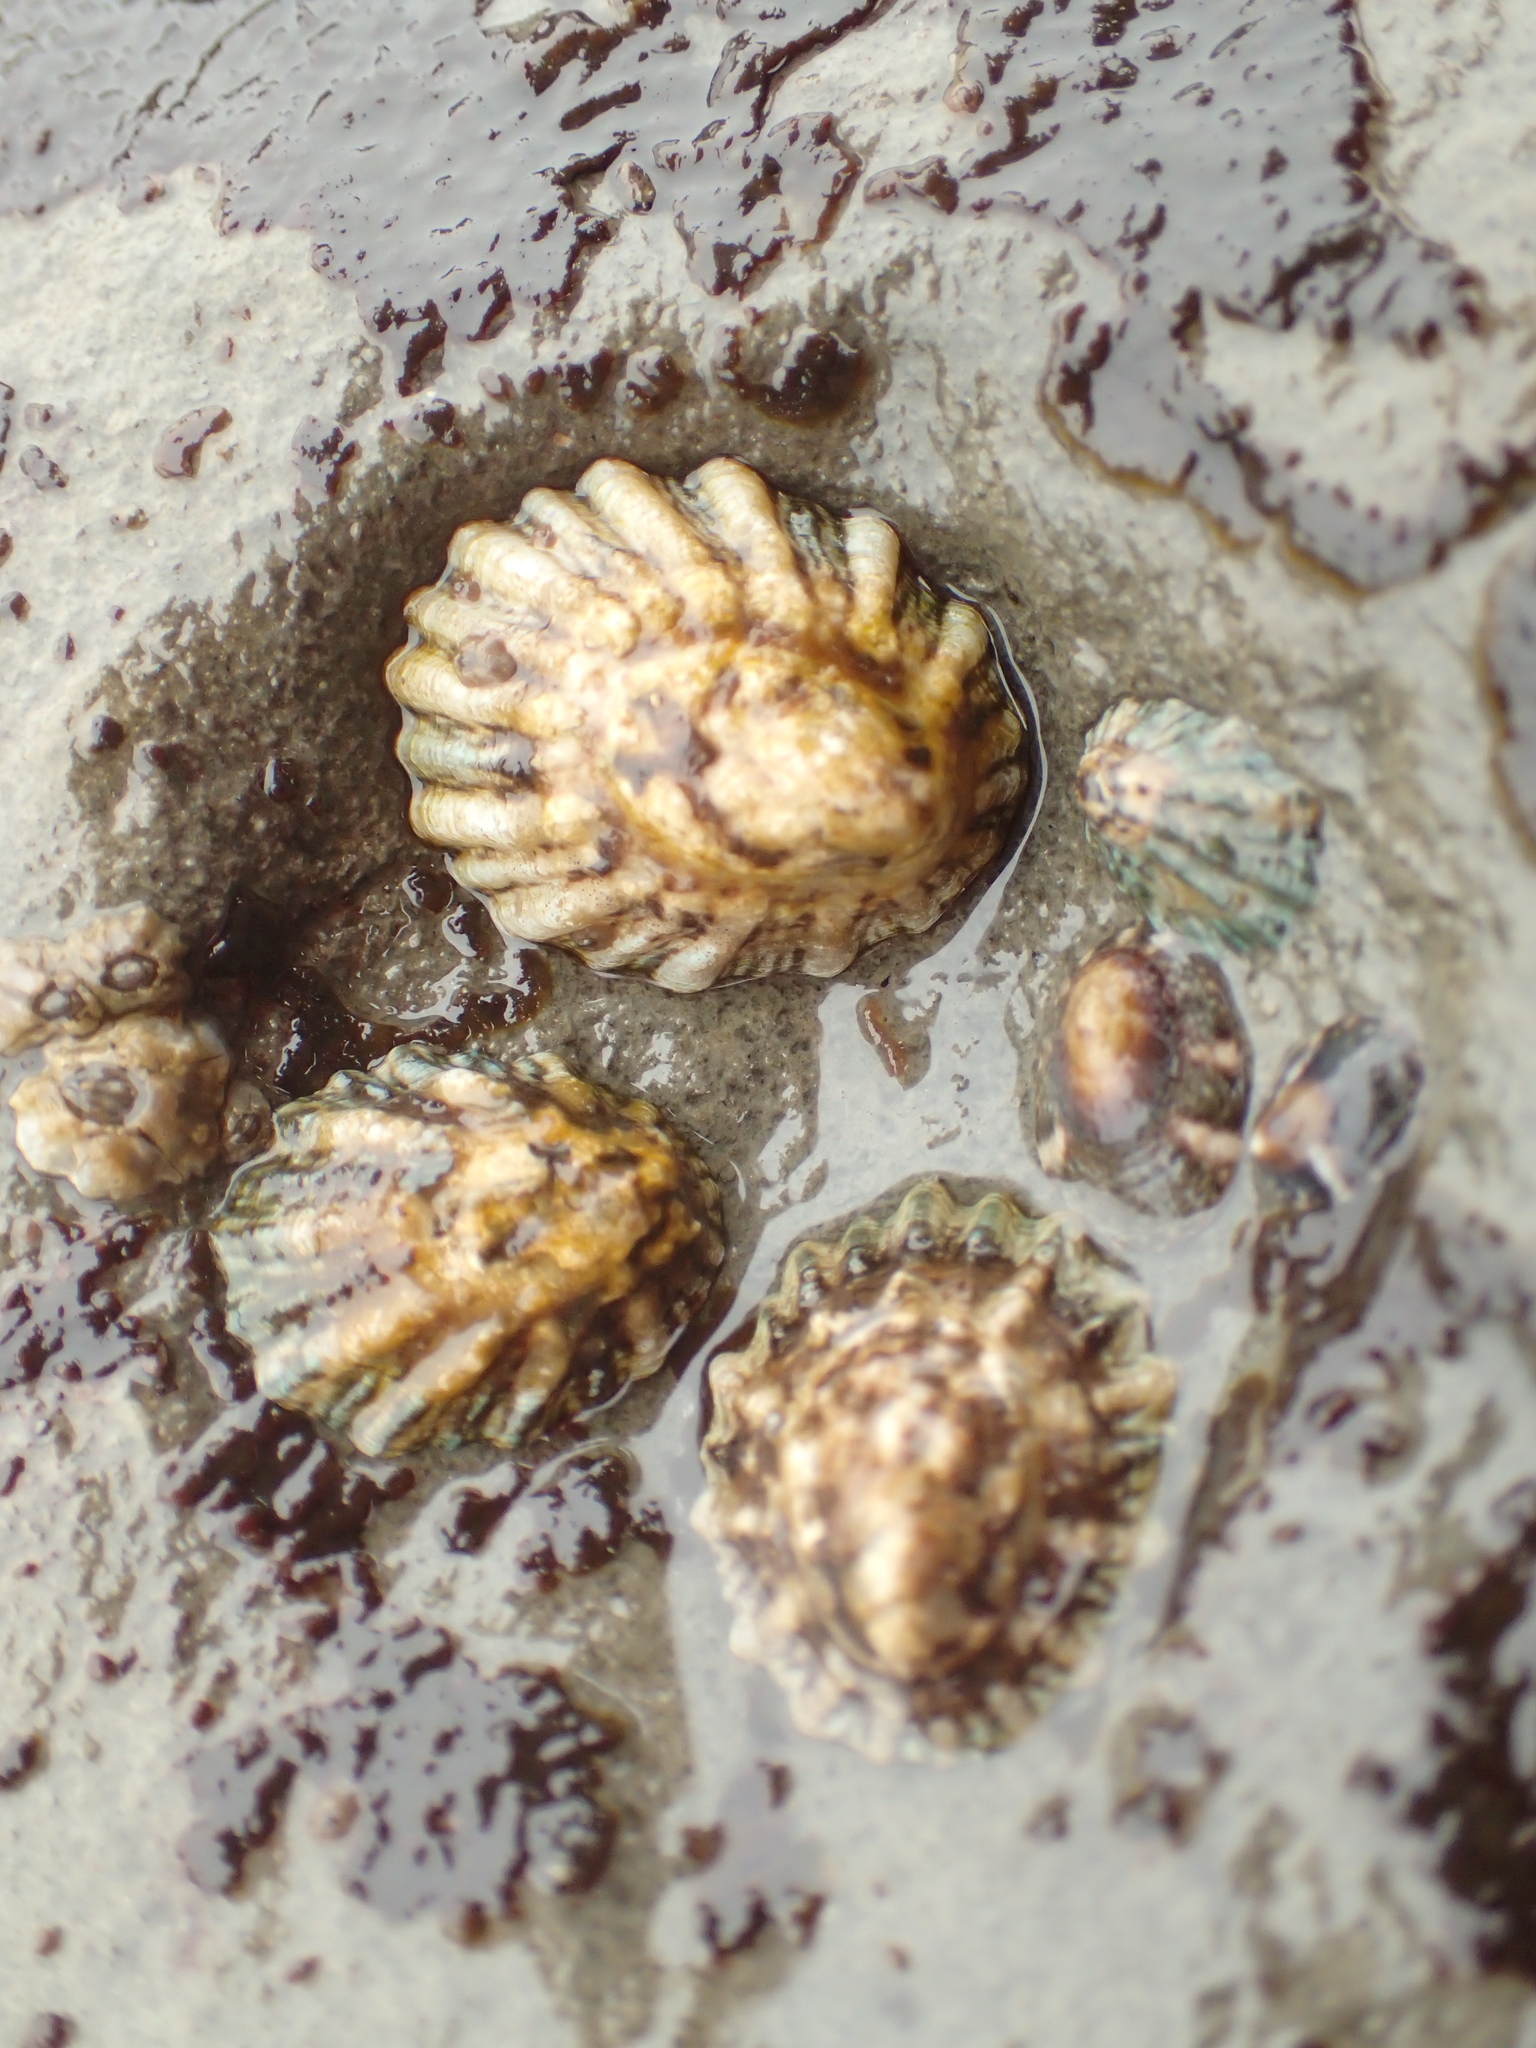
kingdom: Animalia
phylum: Mollusca
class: Gastropoda
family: Lottiidae
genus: Lottia
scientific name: Lottia scabra
